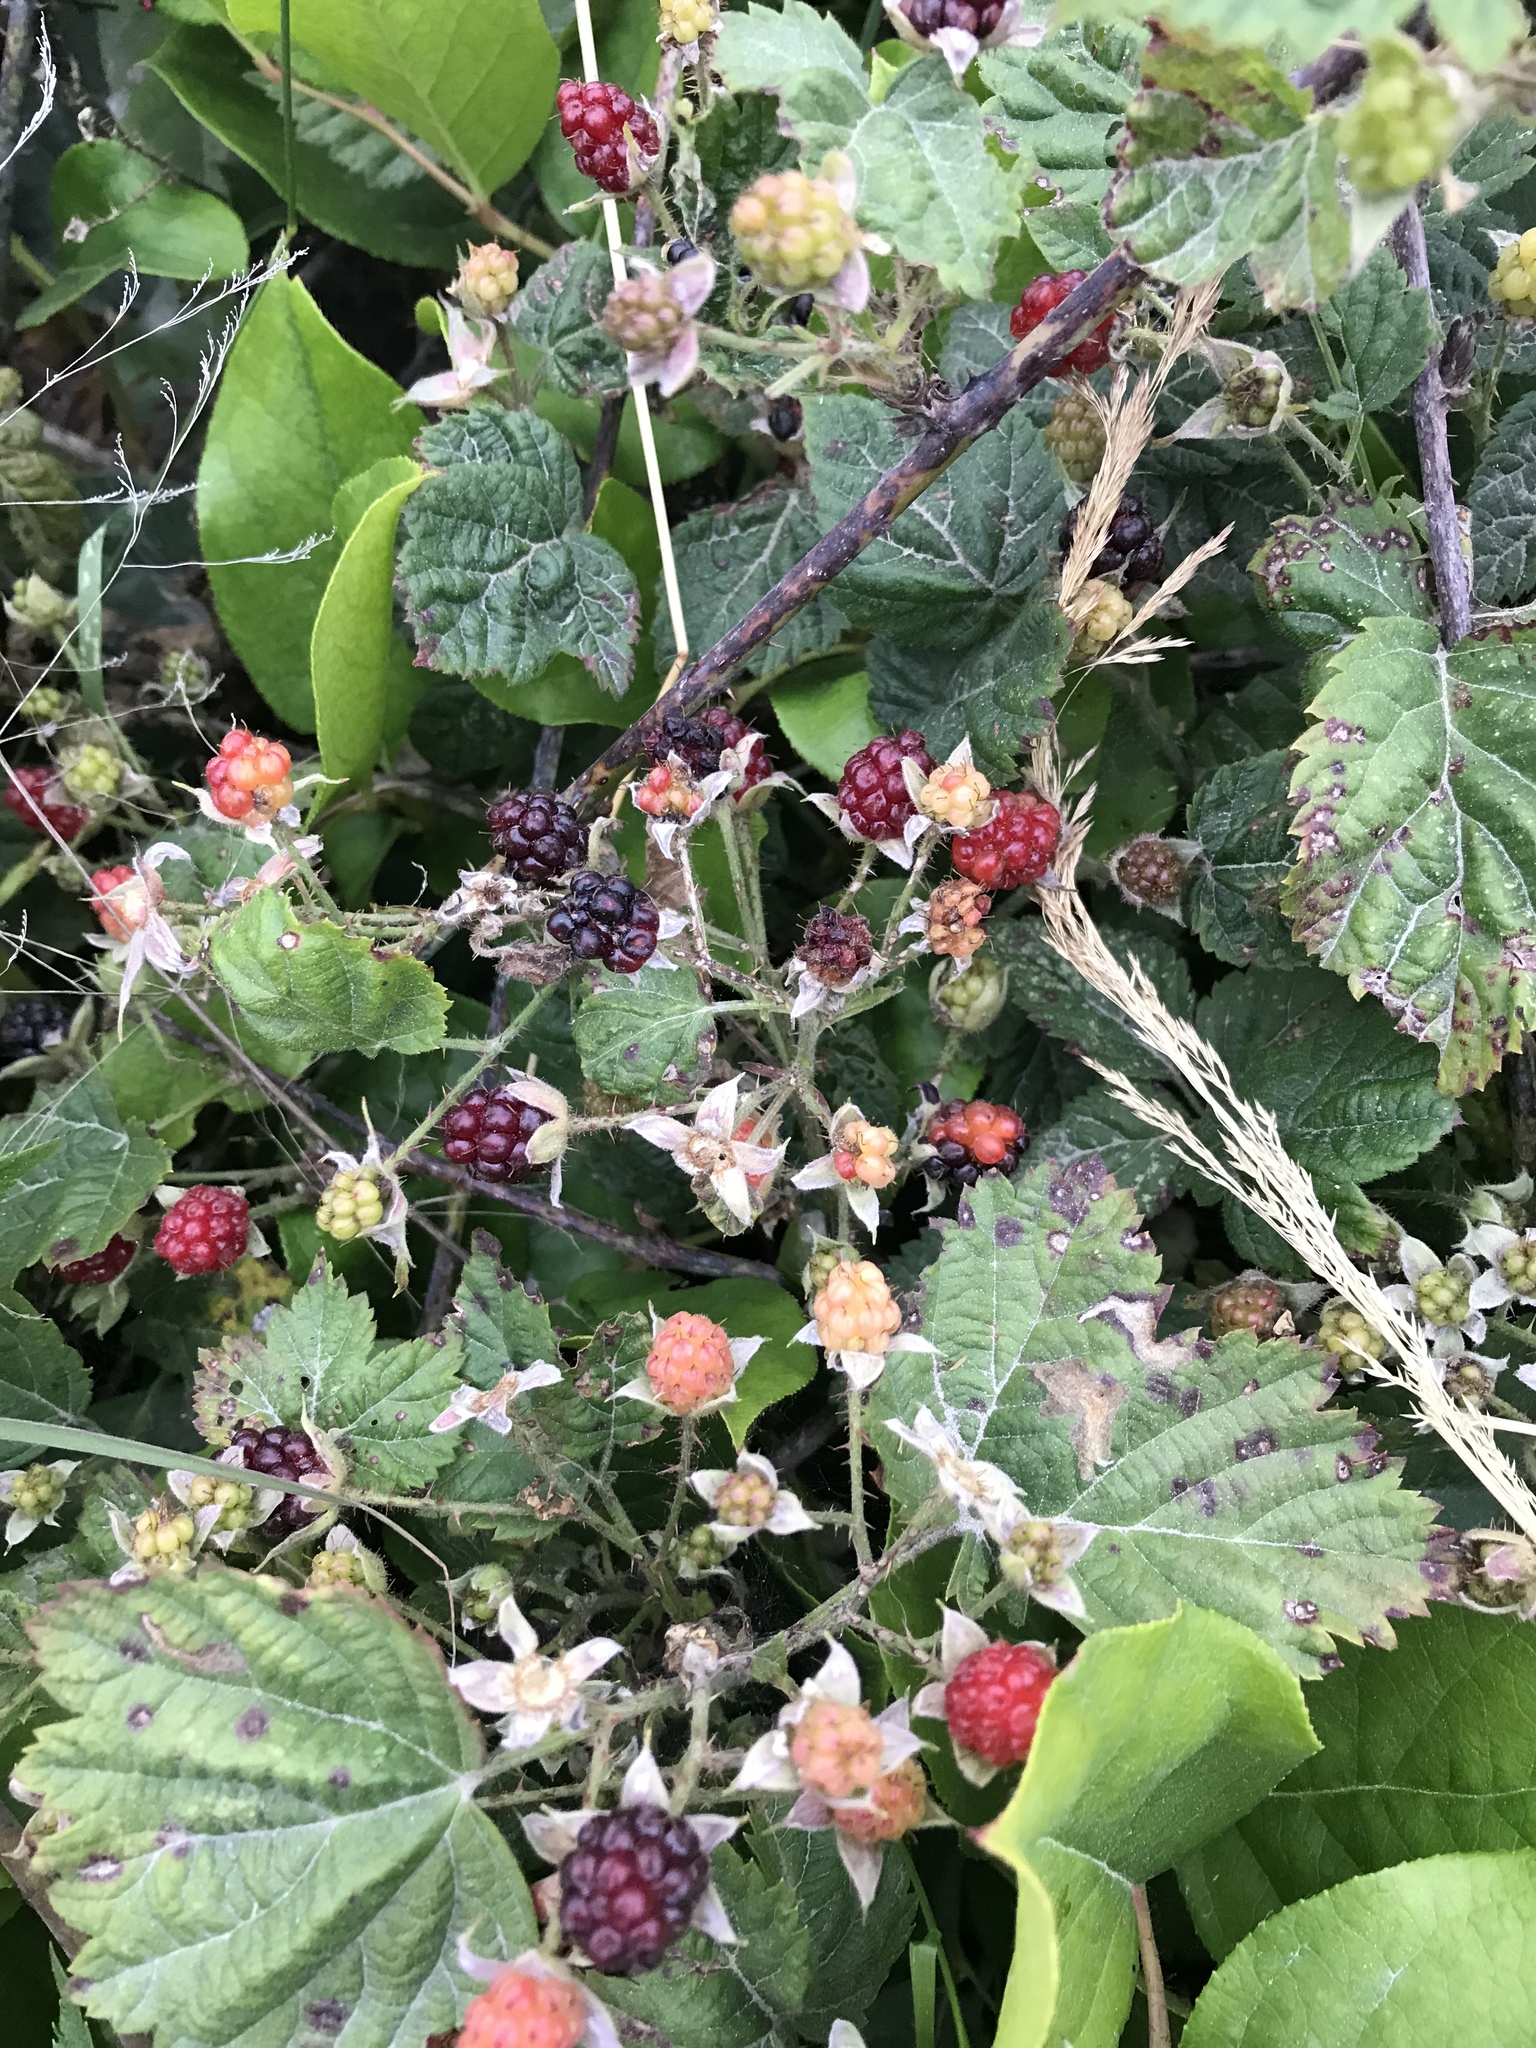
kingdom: Plantae
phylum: Tracheophyta
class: Magnoliopsida
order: Rosales
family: Rosaceae
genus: Rubus
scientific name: Rubus ursinus
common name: Pacific blackberry
